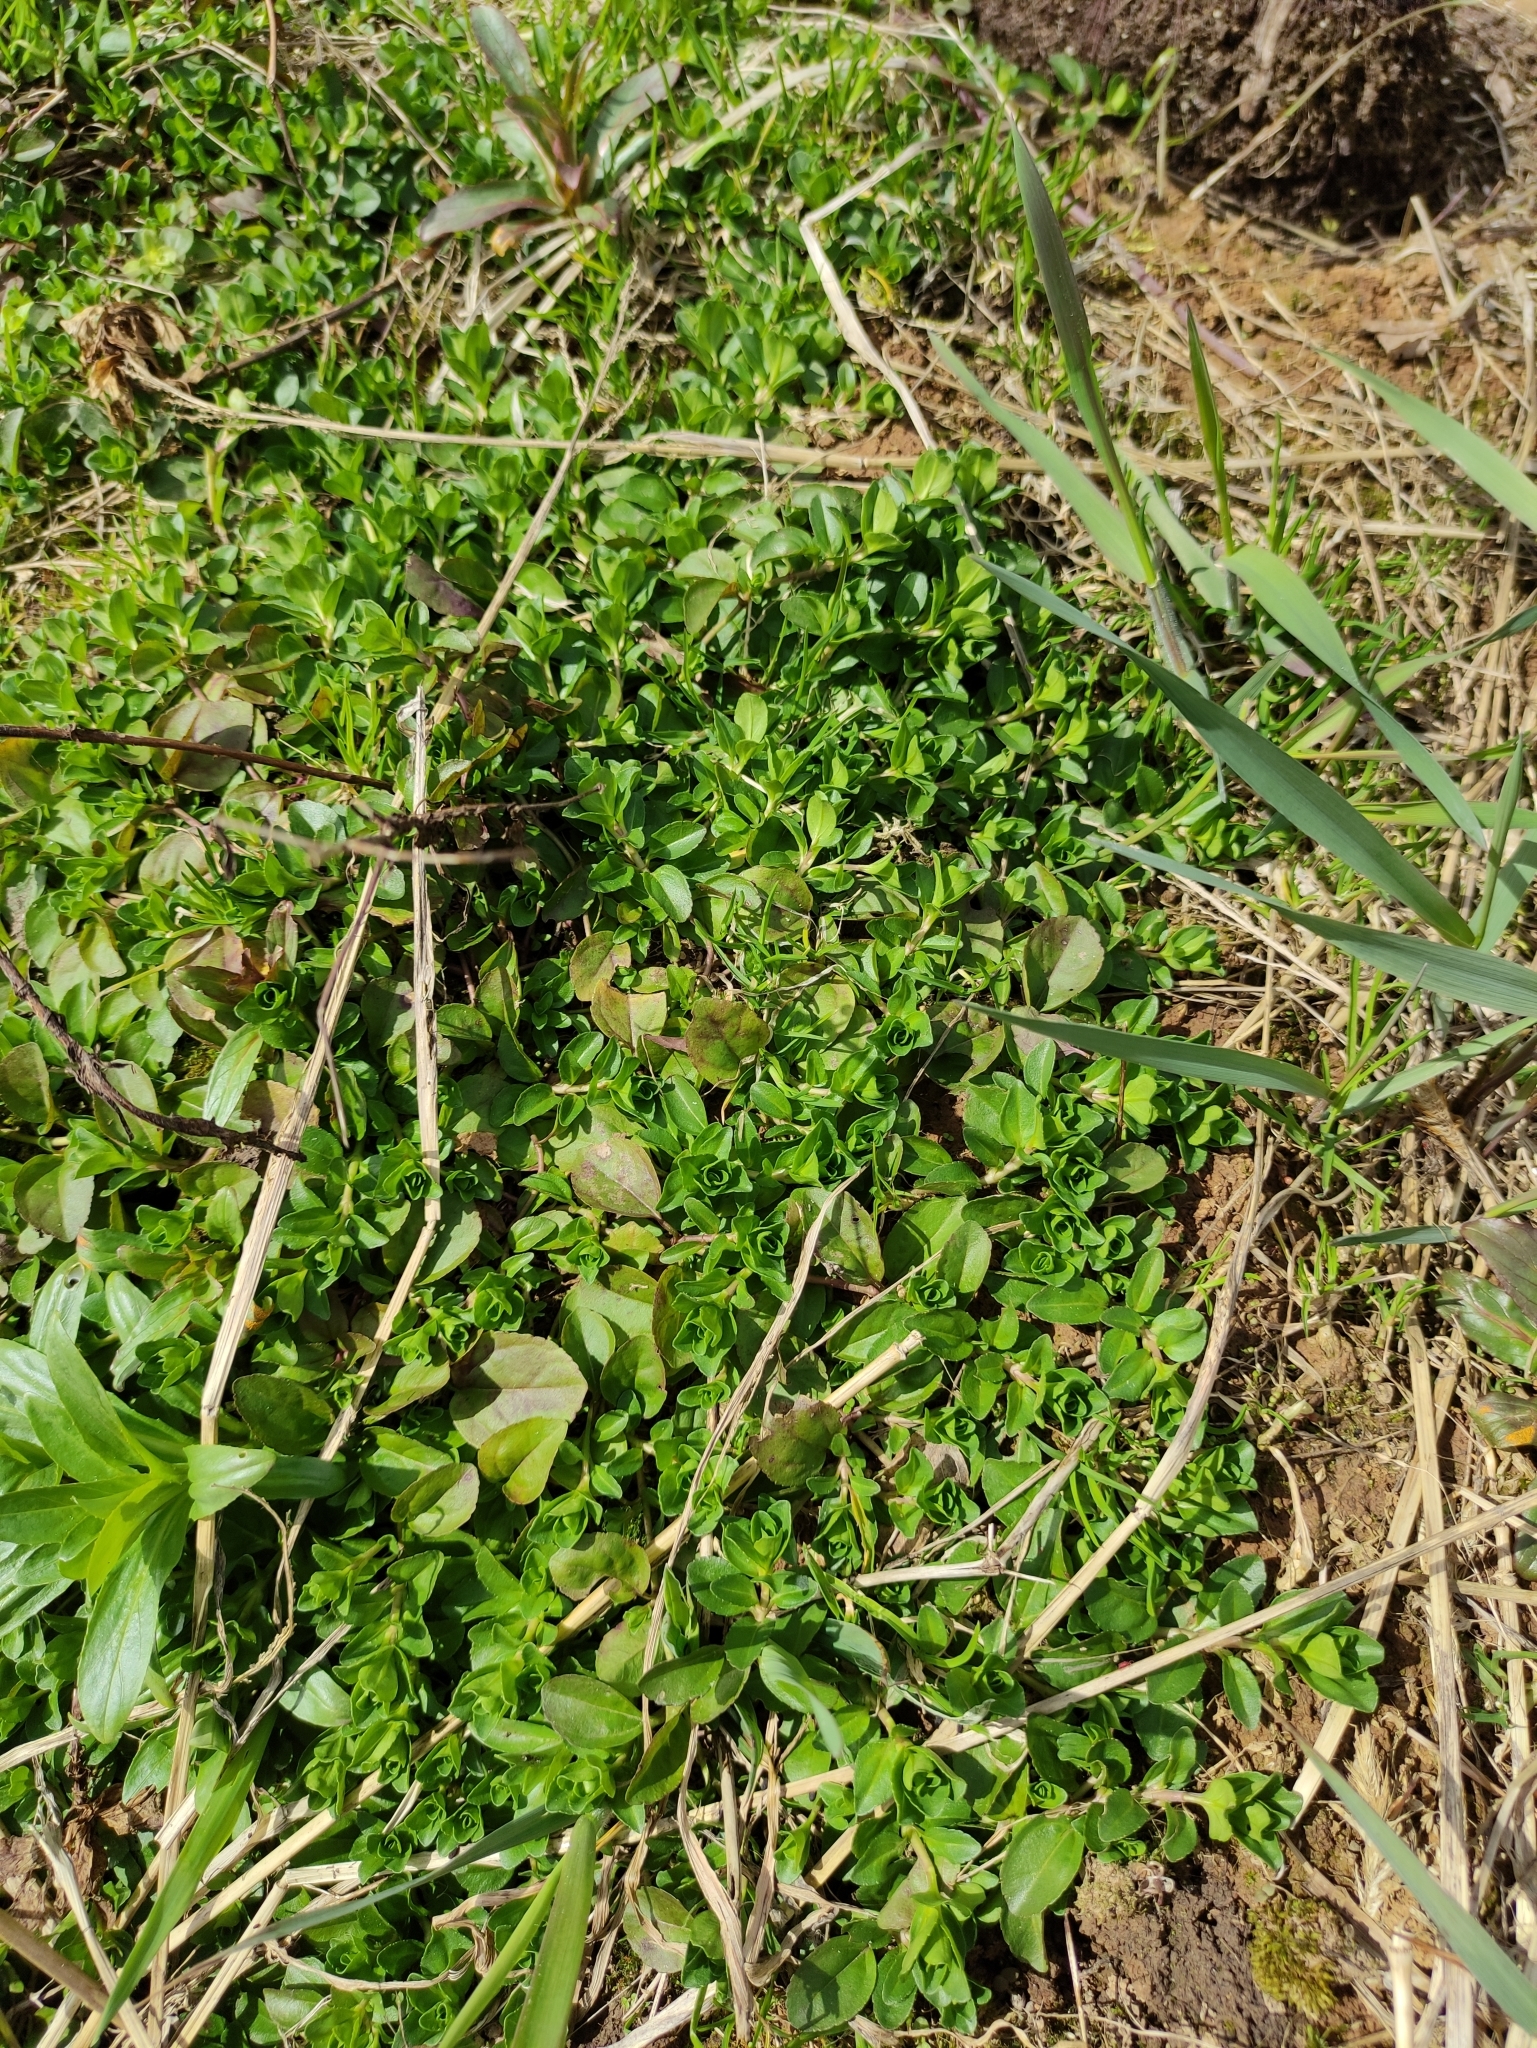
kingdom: Plantae
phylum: Tracheophyta
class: Magnoliopsida
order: Lamiales
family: Plantaginaceae
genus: Veronica
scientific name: Veronica serpyllifolia
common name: Thyme-leaved speedwell
